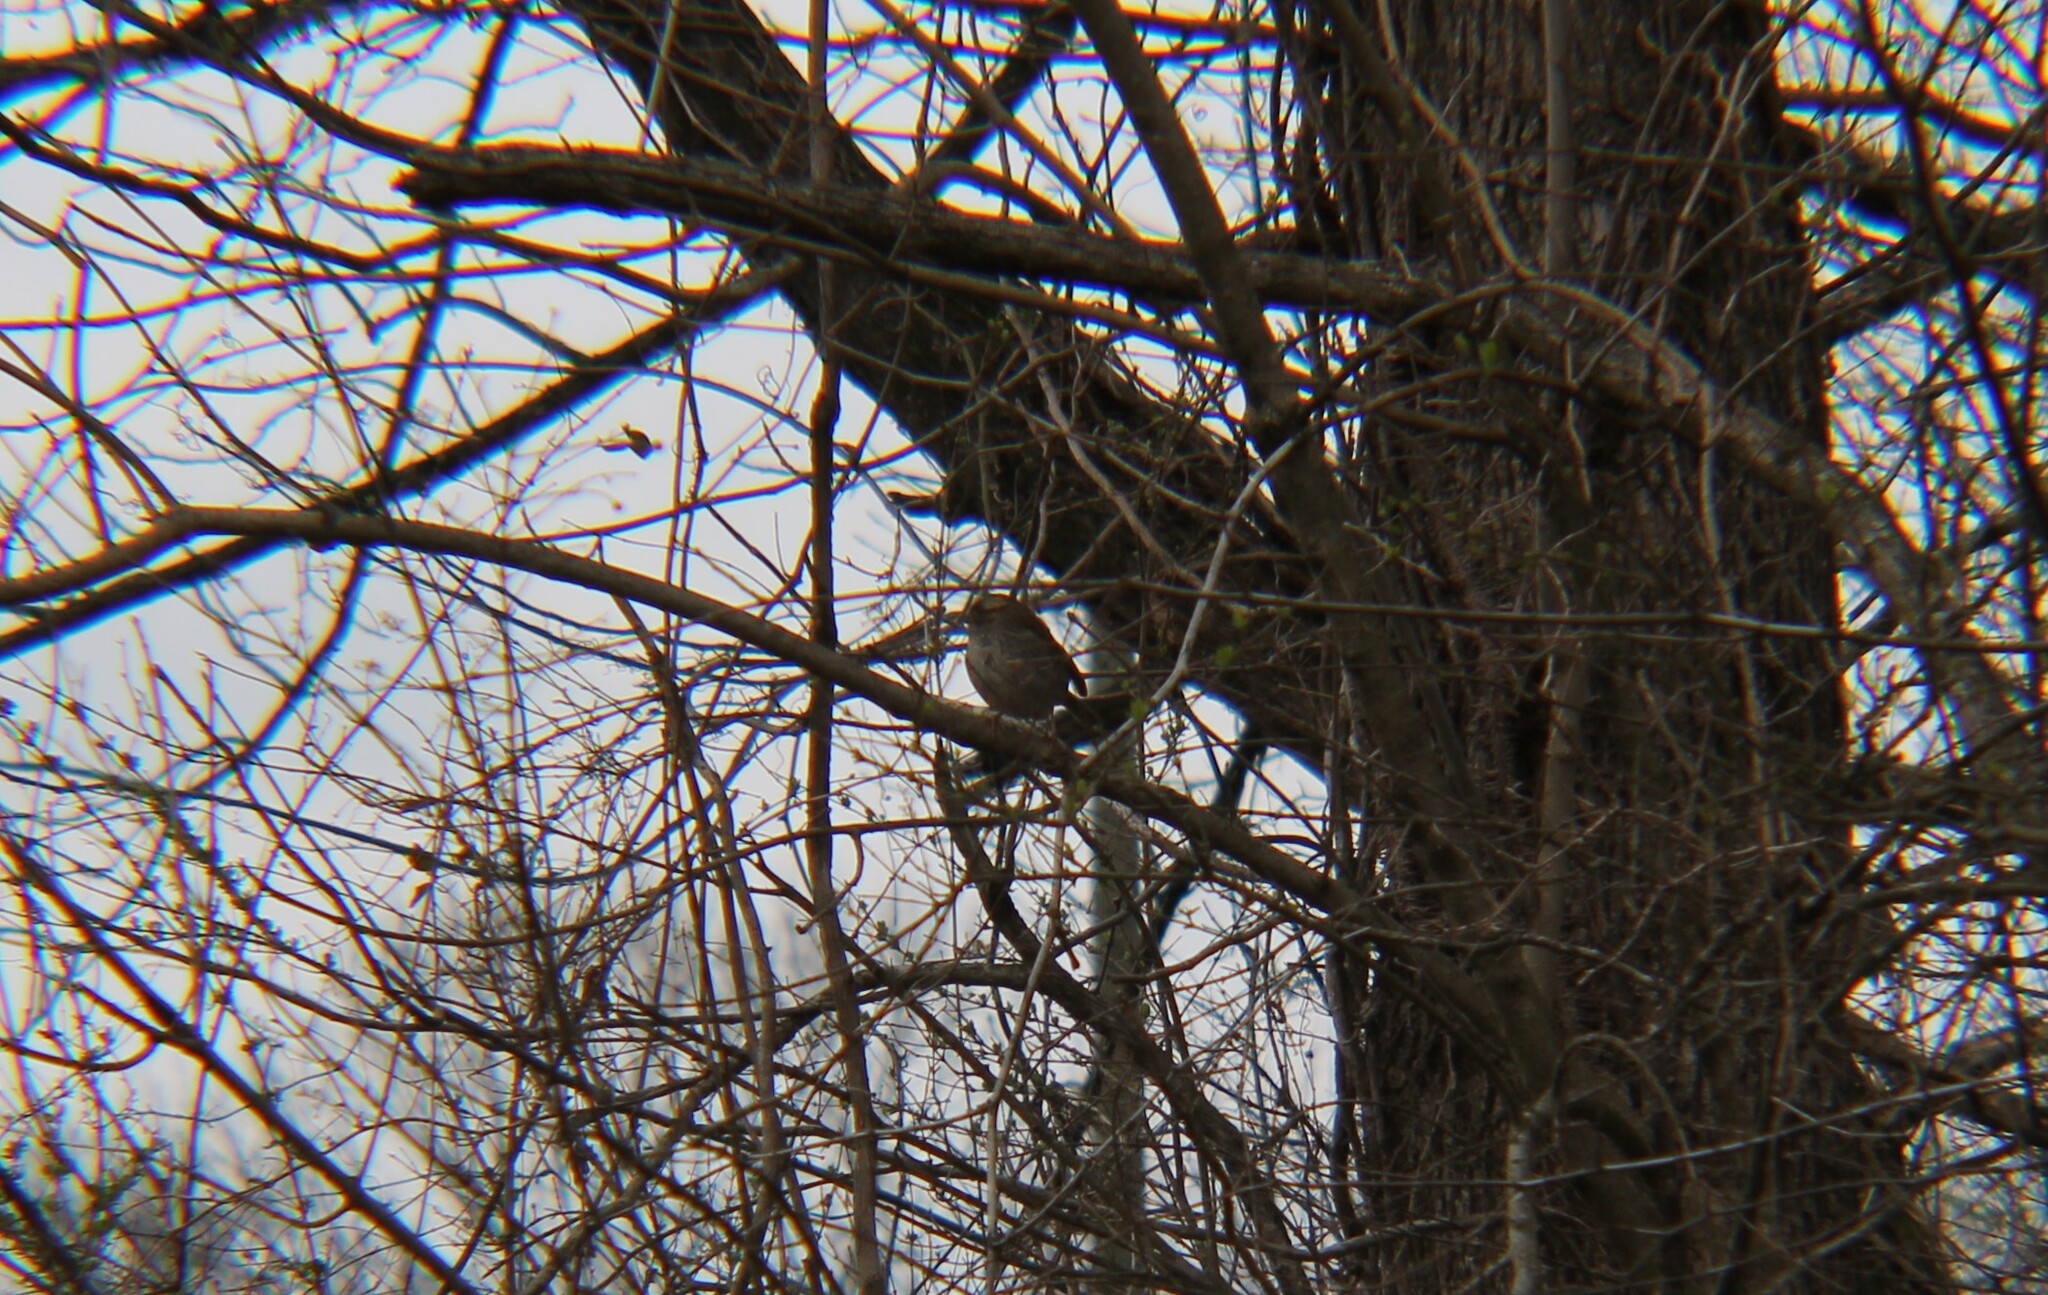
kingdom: Animalia
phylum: Chordata
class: Aves
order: Passeriformes
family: Passerellidae
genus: Zonotrichia
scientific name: Zonotrichia albicollis
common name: White-throated sparrow
